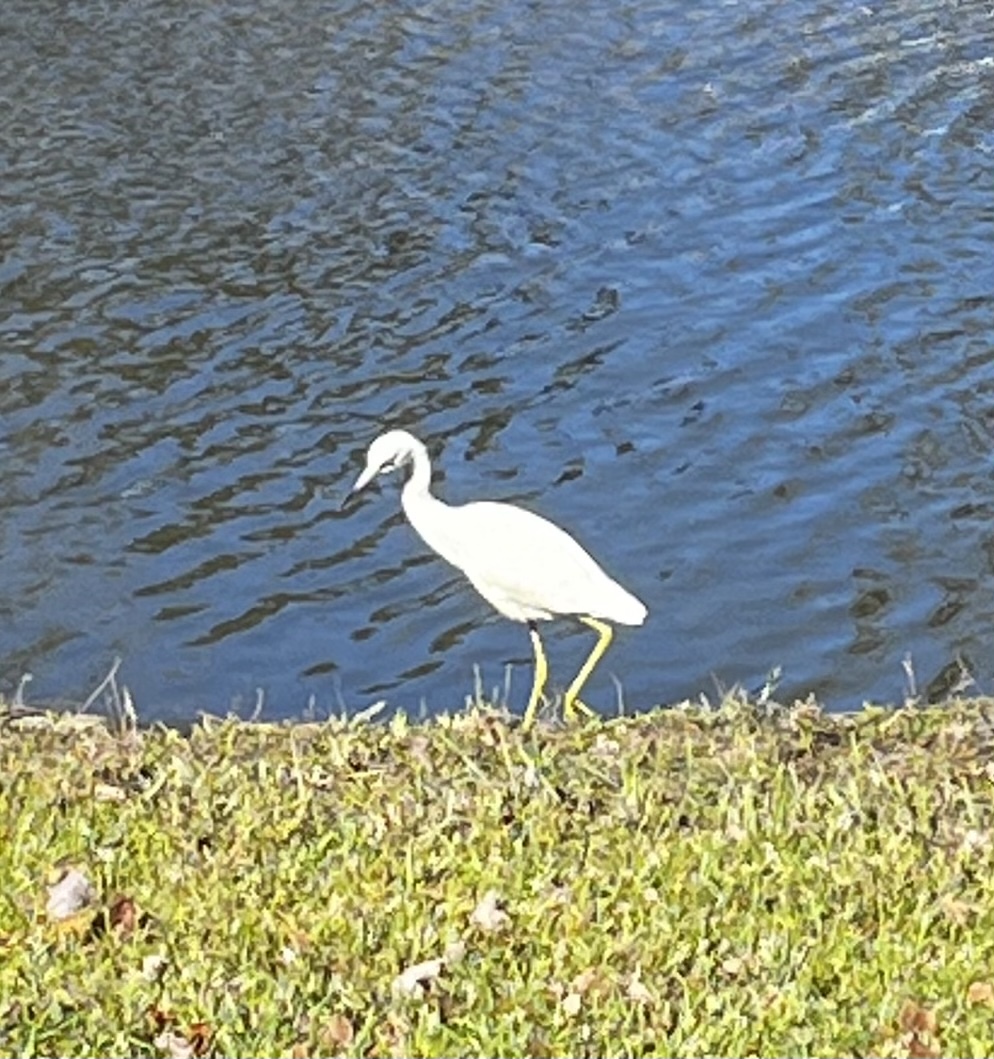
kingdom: Animalia
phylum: Chordata
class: Aves
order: Pelecaniformes
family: Ardeidae
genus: Egretta
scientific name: Egretta caerulea
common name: Little blue heron
